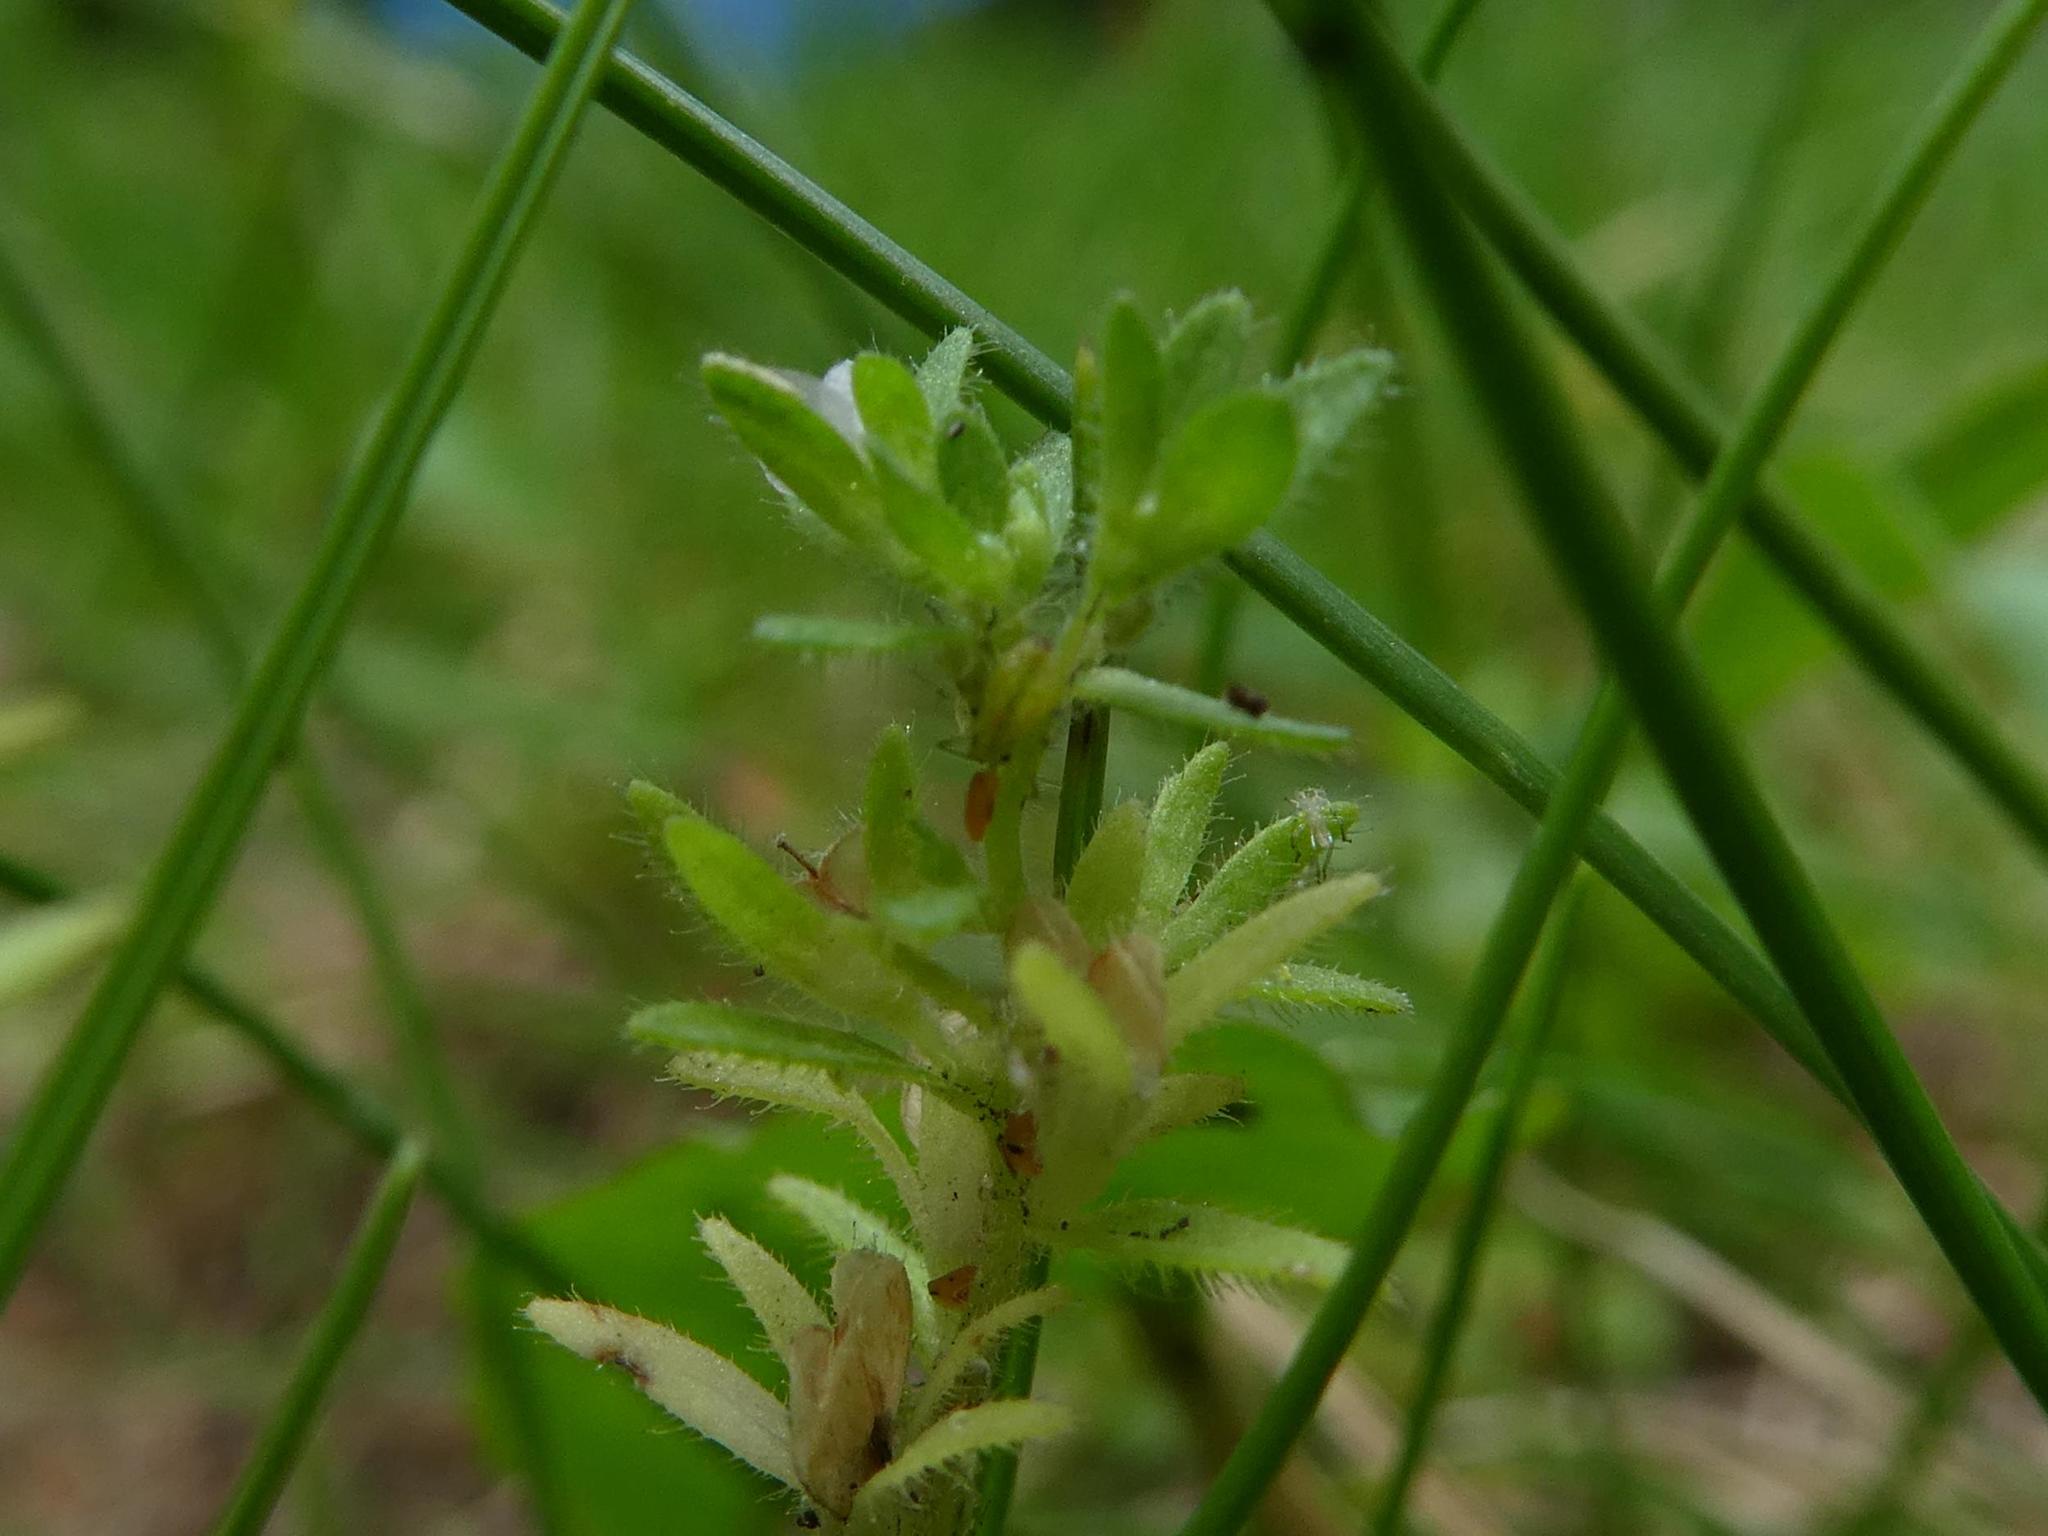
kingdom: Plantae
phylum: Tracheophyta
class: Magnoliopsida
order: Lamiales
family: Plantaginaceae
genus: Veronica
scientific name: Veronica arvensis
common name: Corn speedwell
